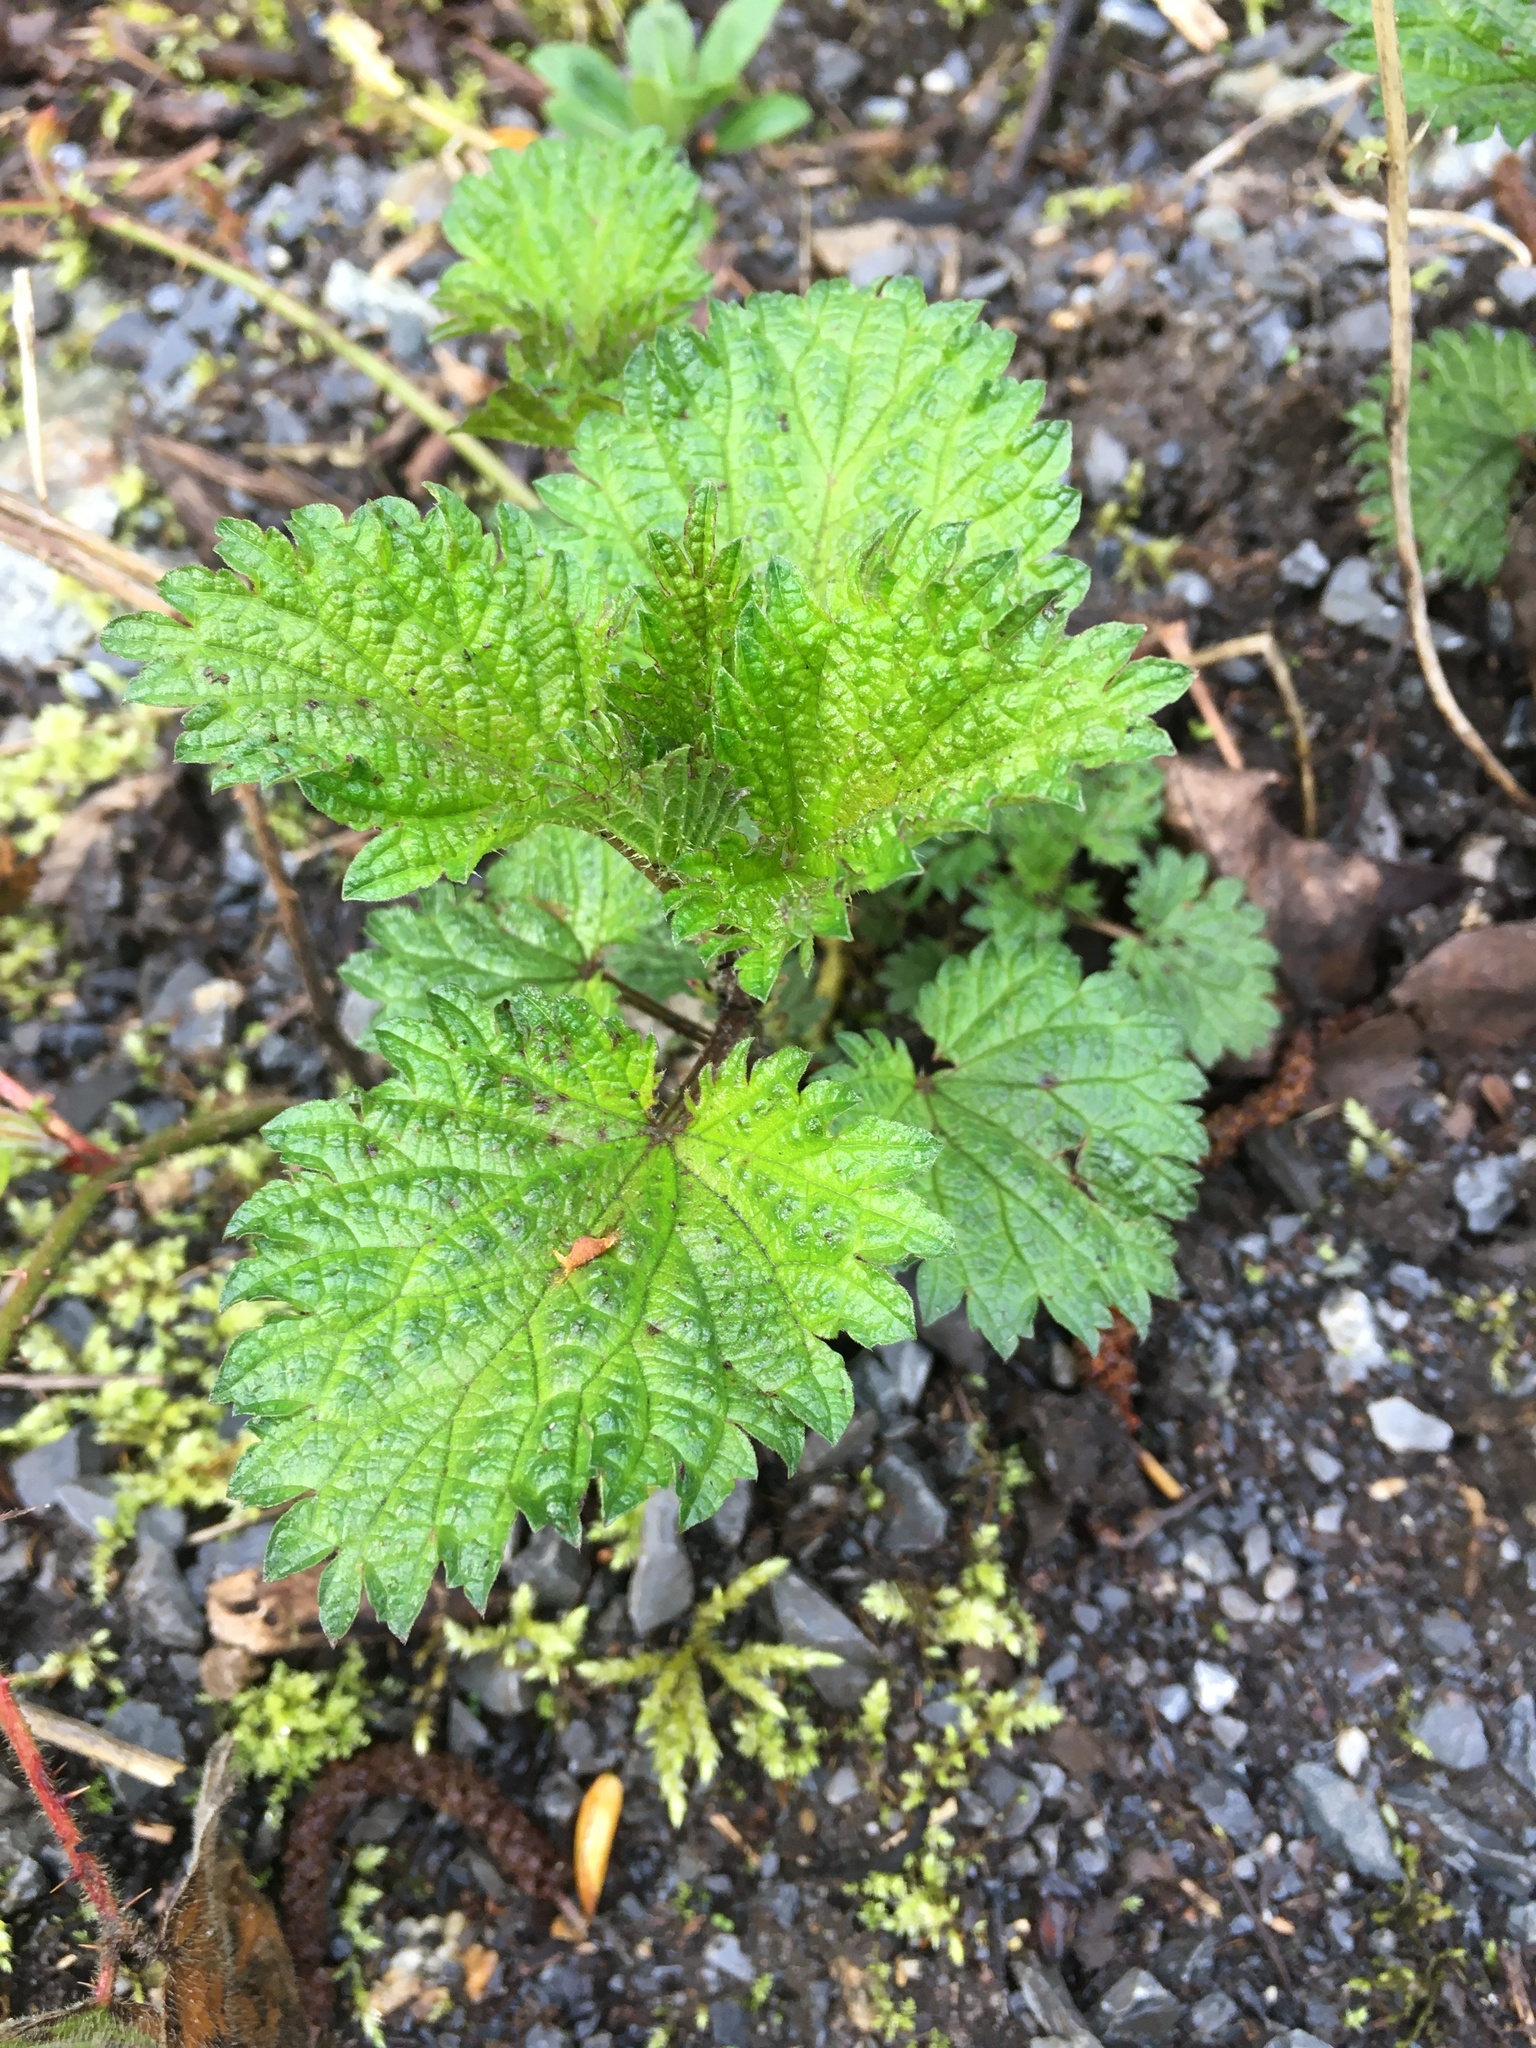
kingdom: Plantae
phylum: Tracheophyta
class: Magnoliopsida
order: Rosales
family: Urticaceae
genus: Urtica
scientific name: Urtica dioica
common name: Common nettle
